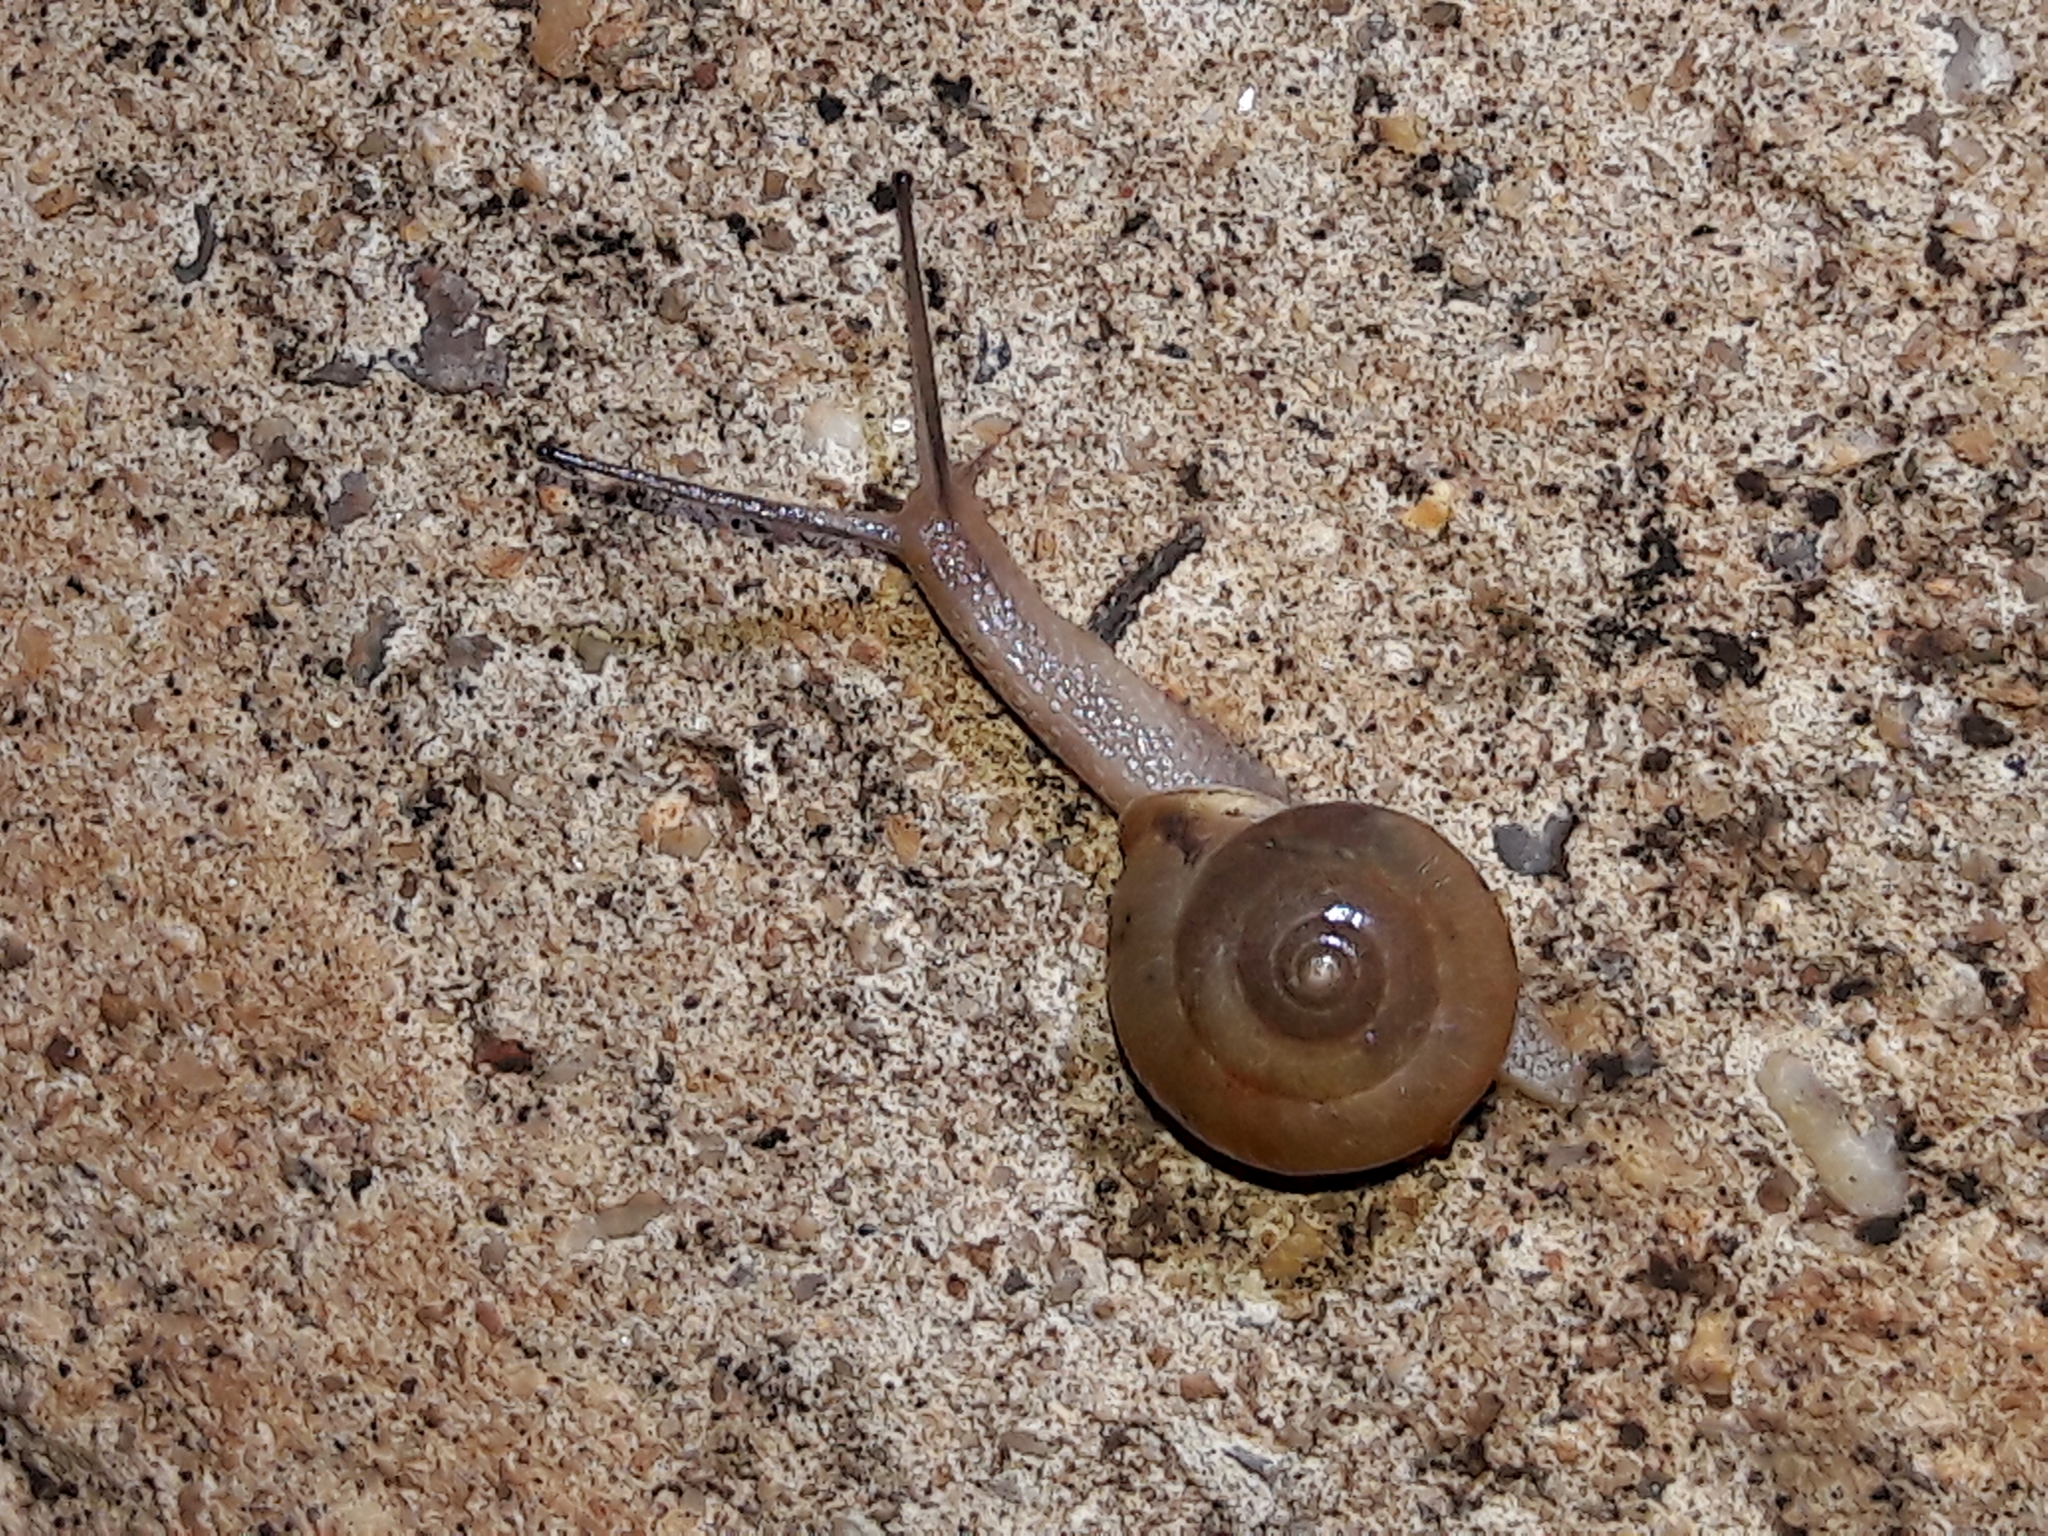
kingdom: Animalia
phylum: Mollusca
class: Gastropoda
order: Stylommatophora
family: Camaenidae
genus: Bradybaena
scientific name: Bradybaena similaris
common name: Asian trampsnail
